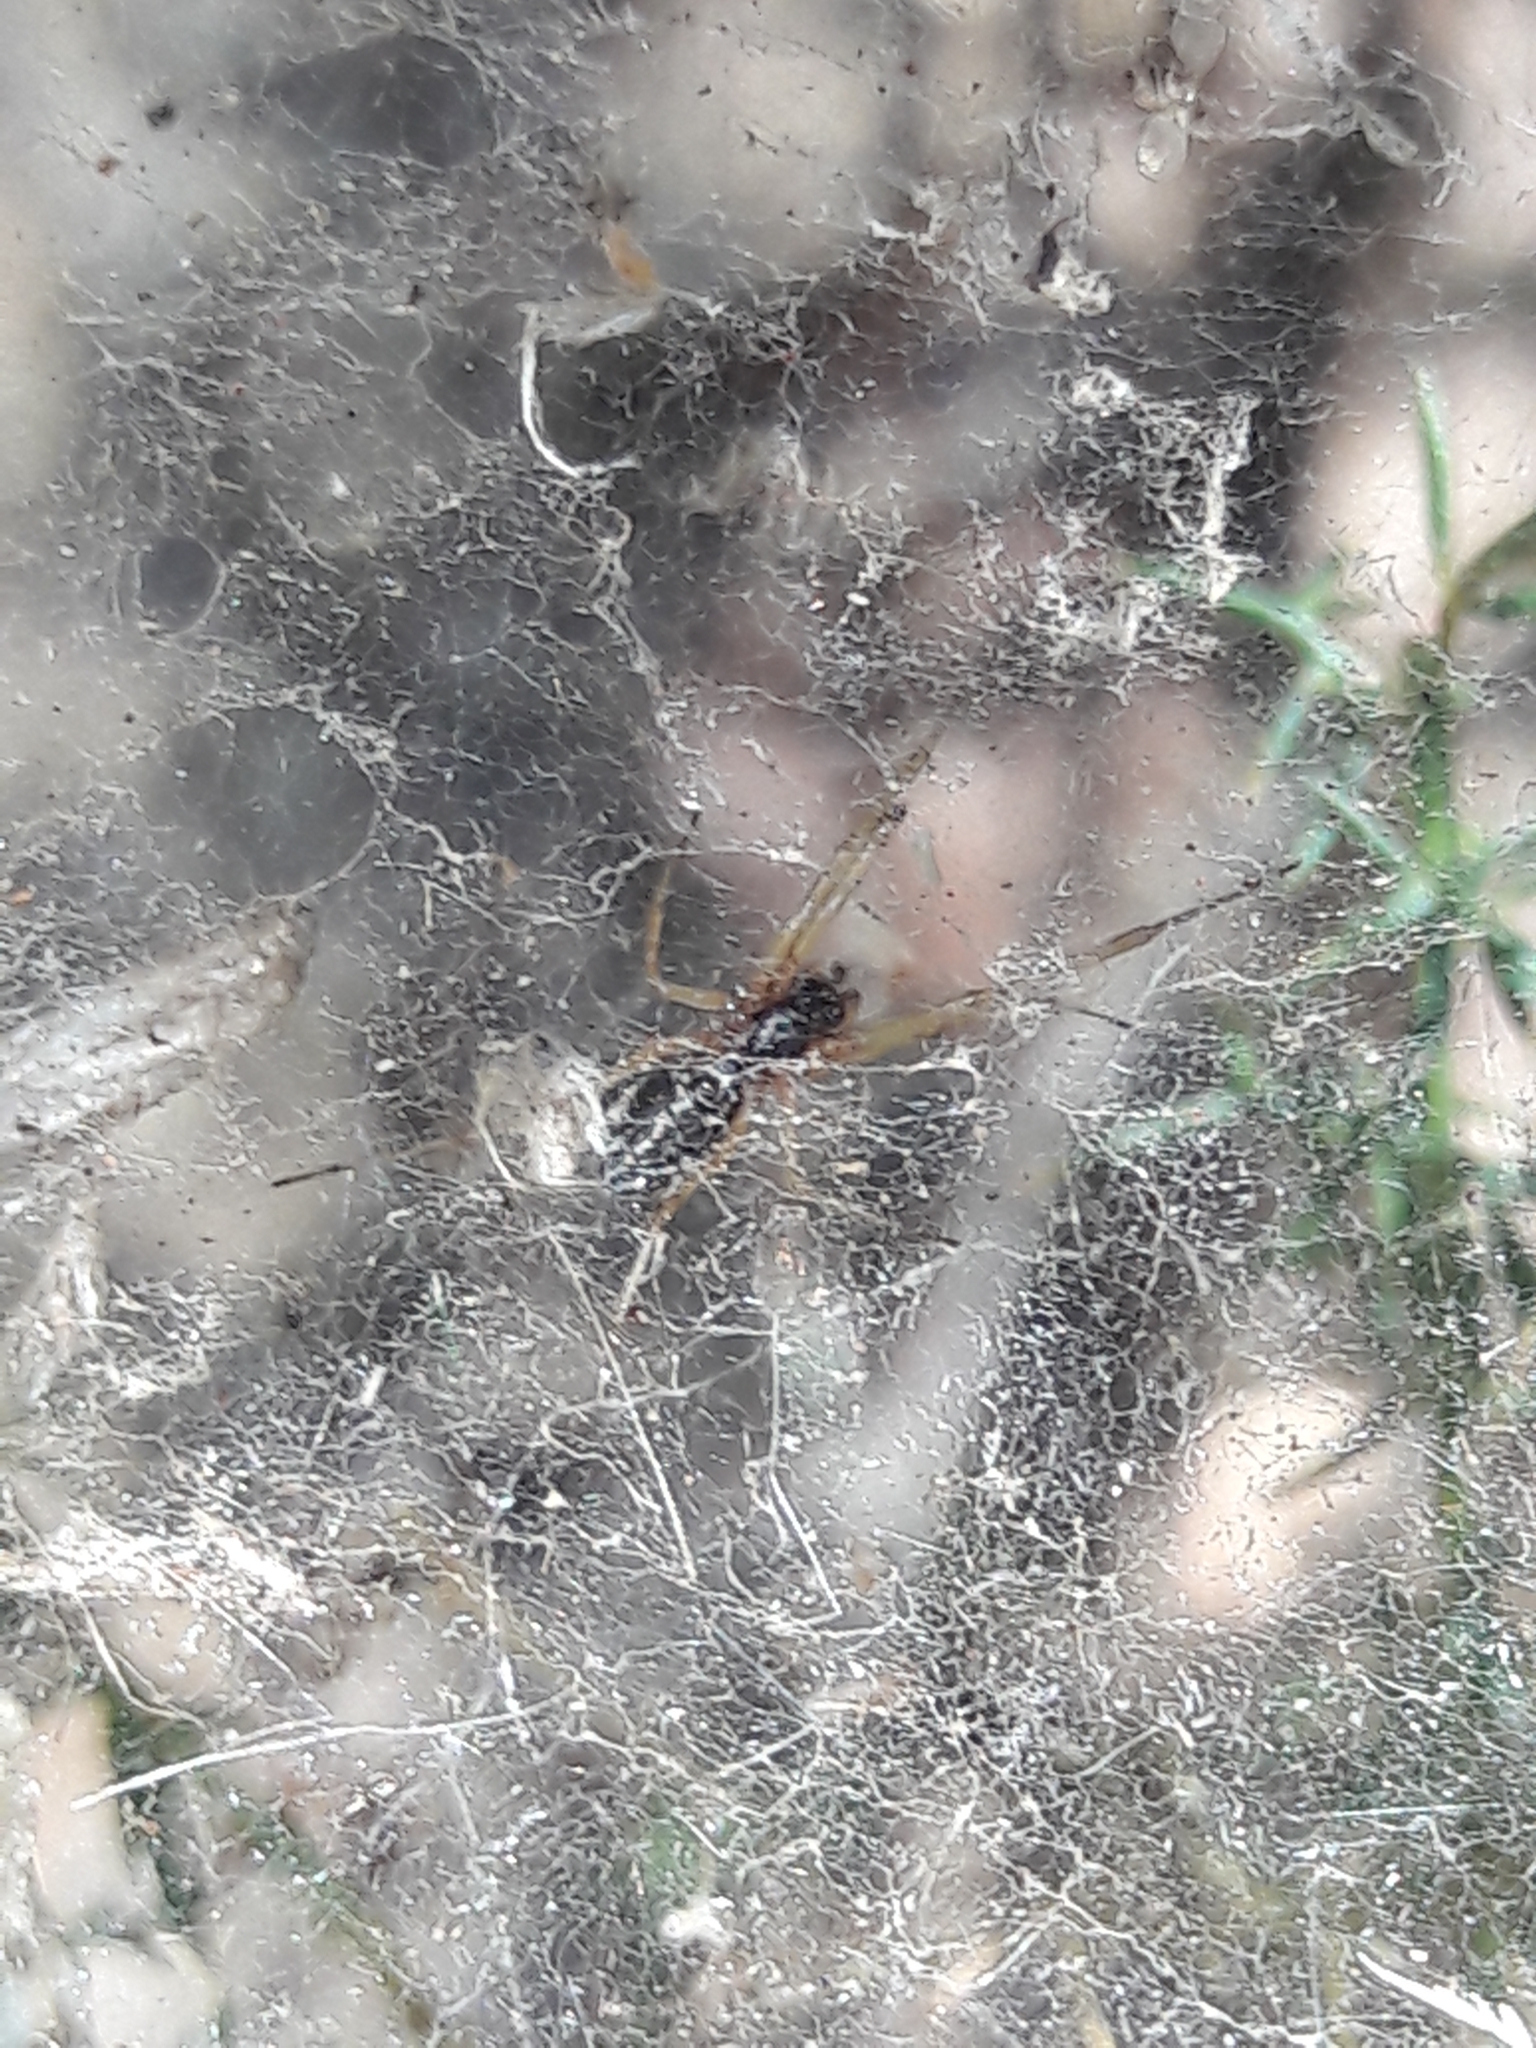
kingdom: Animalia
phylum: Arthropoda
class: Arachnida
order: Araneae
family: Linyphiidae
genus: Frontinellina
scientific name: Frontinellina frutetorum
